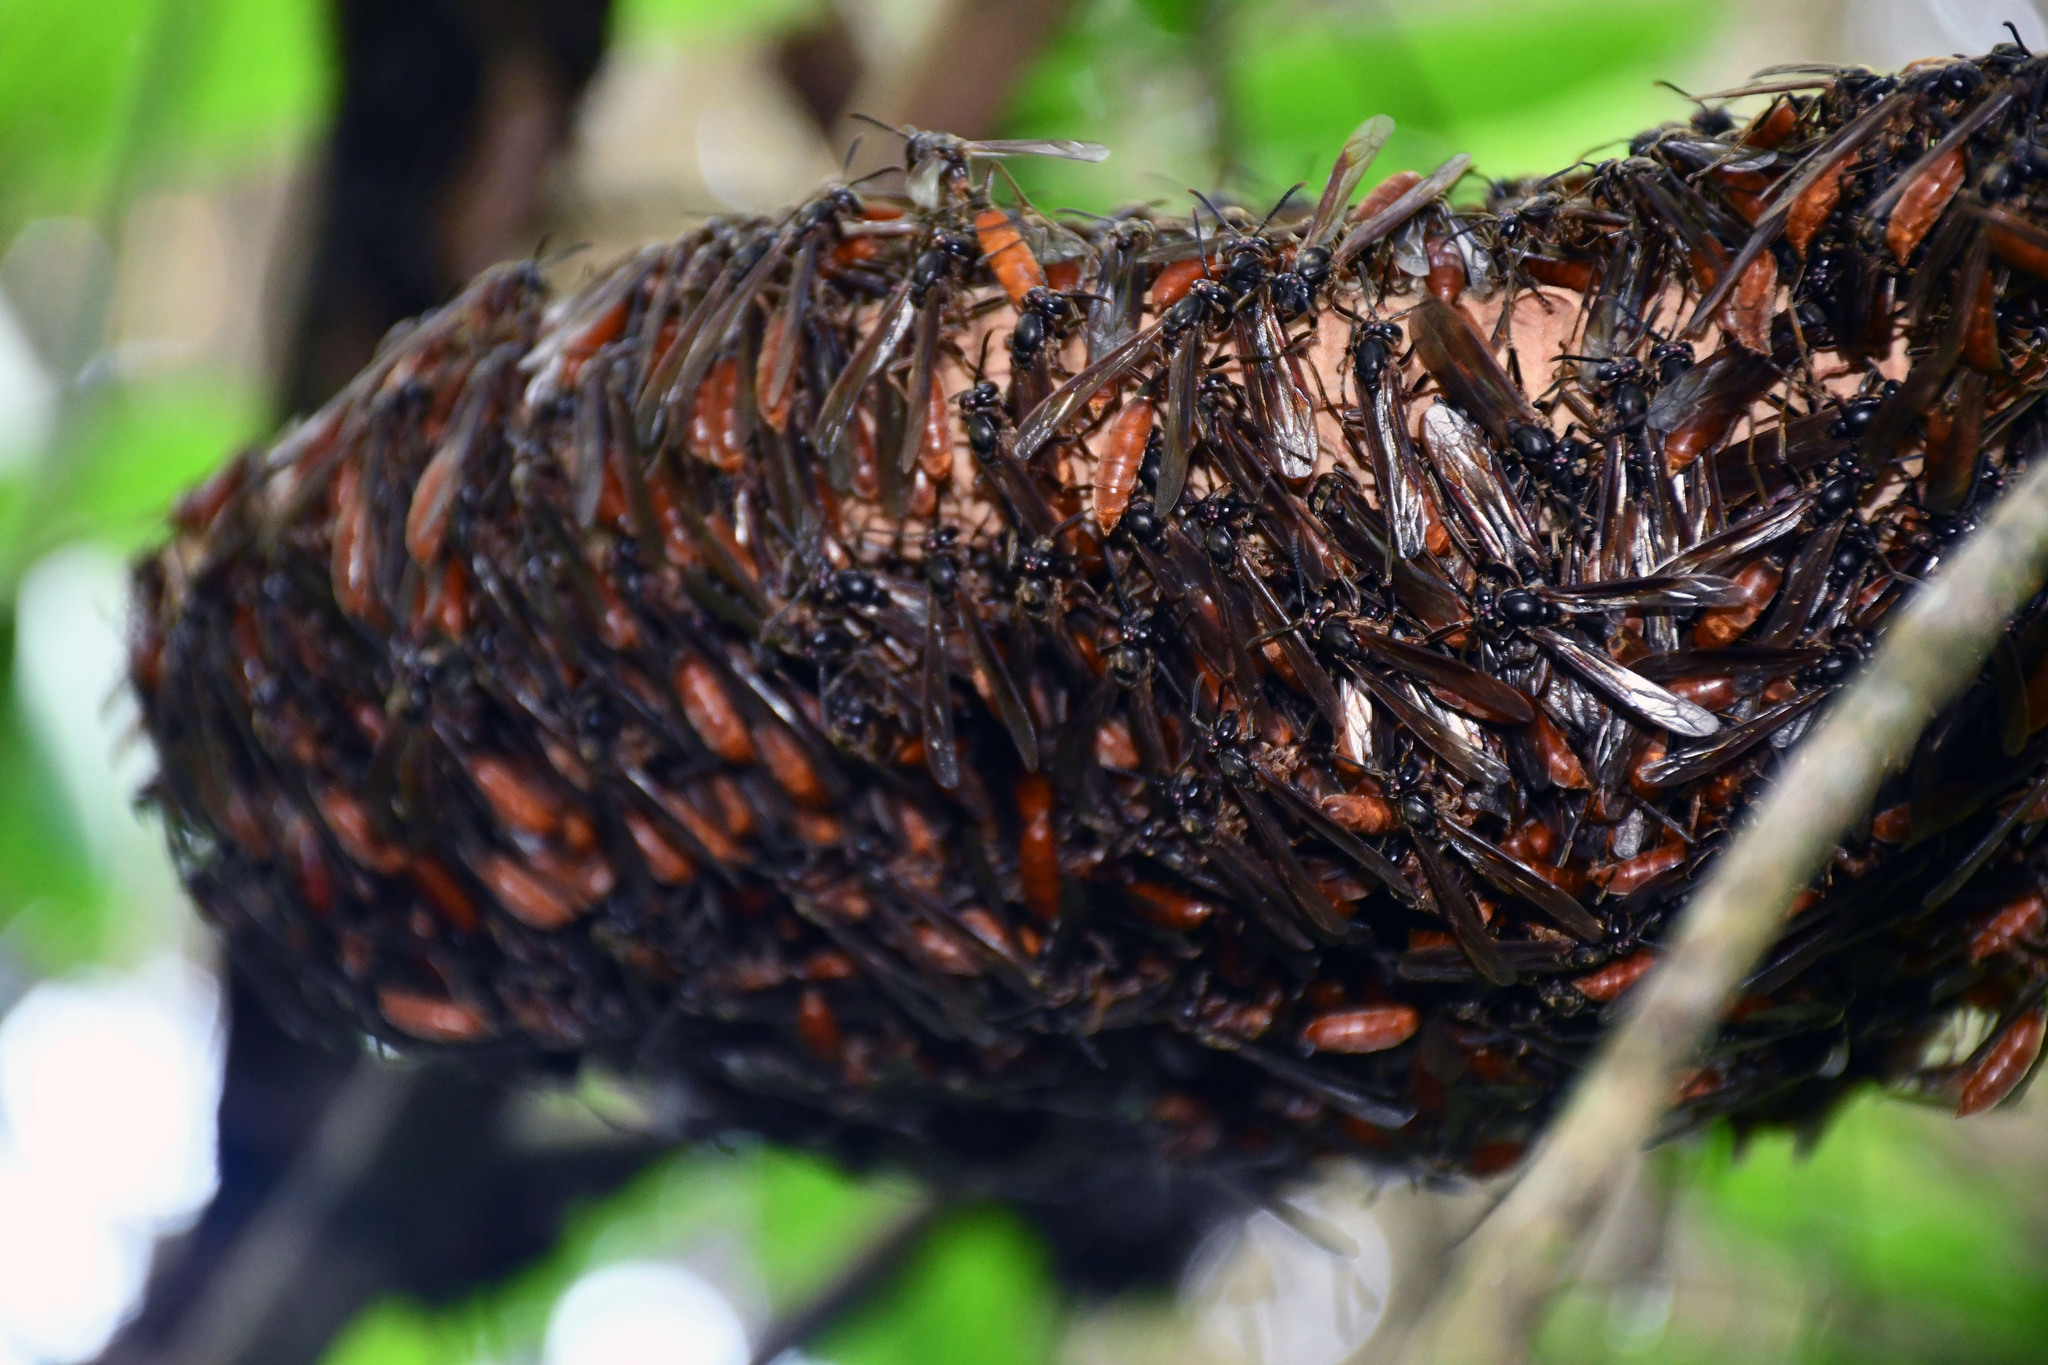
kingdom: Animalia
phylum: Arthropoda
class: Insecta
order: Hymenoptera
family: Vespidae
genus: Apoica
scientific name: Apoica thoracica
